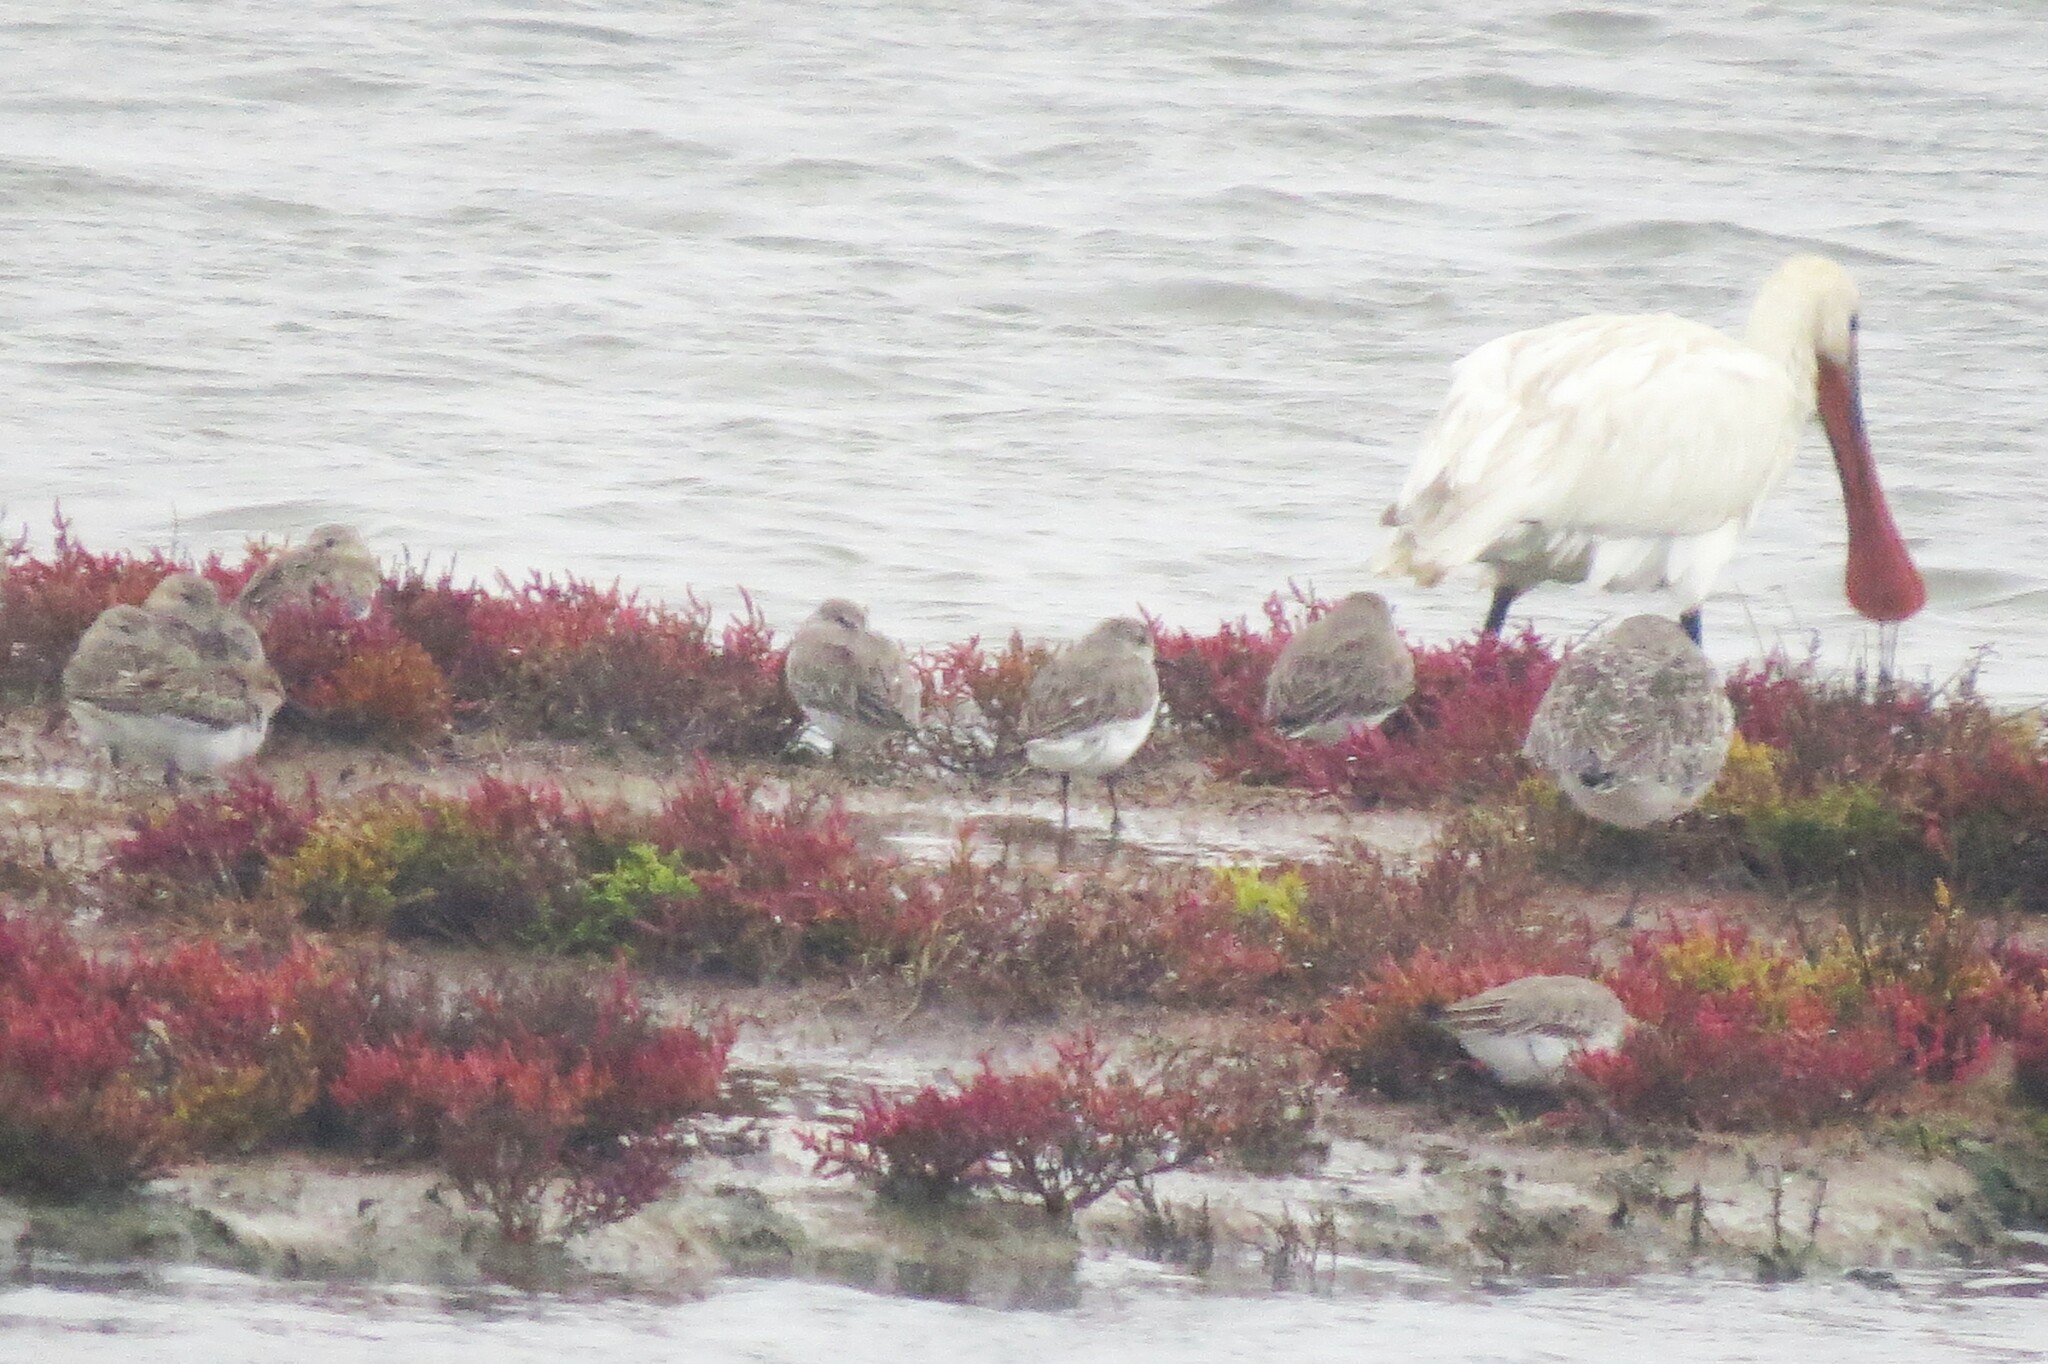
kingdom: Animalia
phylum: Chordata
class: Aves
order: Pelecaniformes
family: Threskiornithidae
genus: Platalea
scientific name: Platalea leucorodia
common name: Eurasian spoonbill
